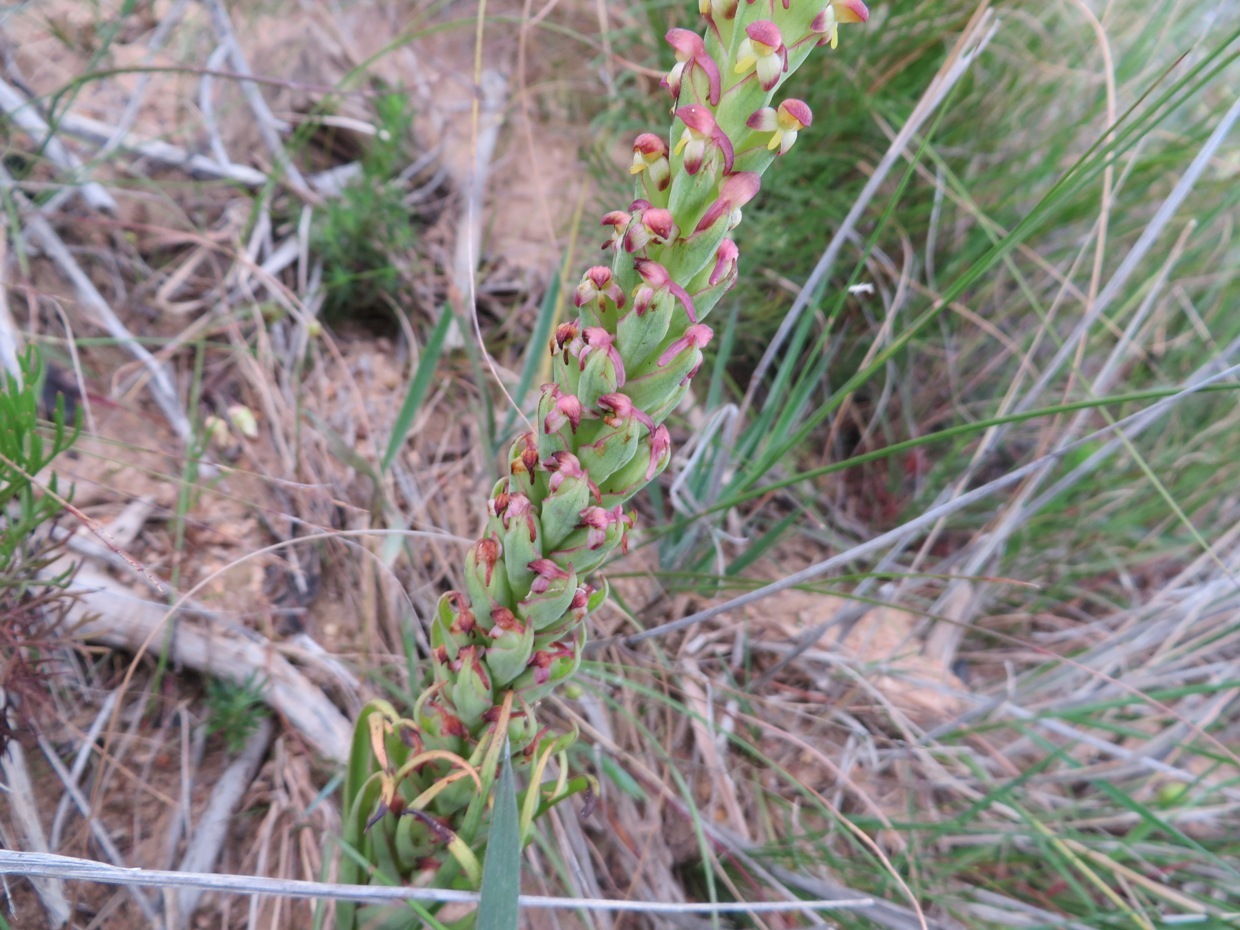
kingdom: Plantae
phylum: Tracheophyta
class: Liliopsida
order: Asparagales
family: Orchidaceae
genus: Disa
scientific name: Disa bracteata
